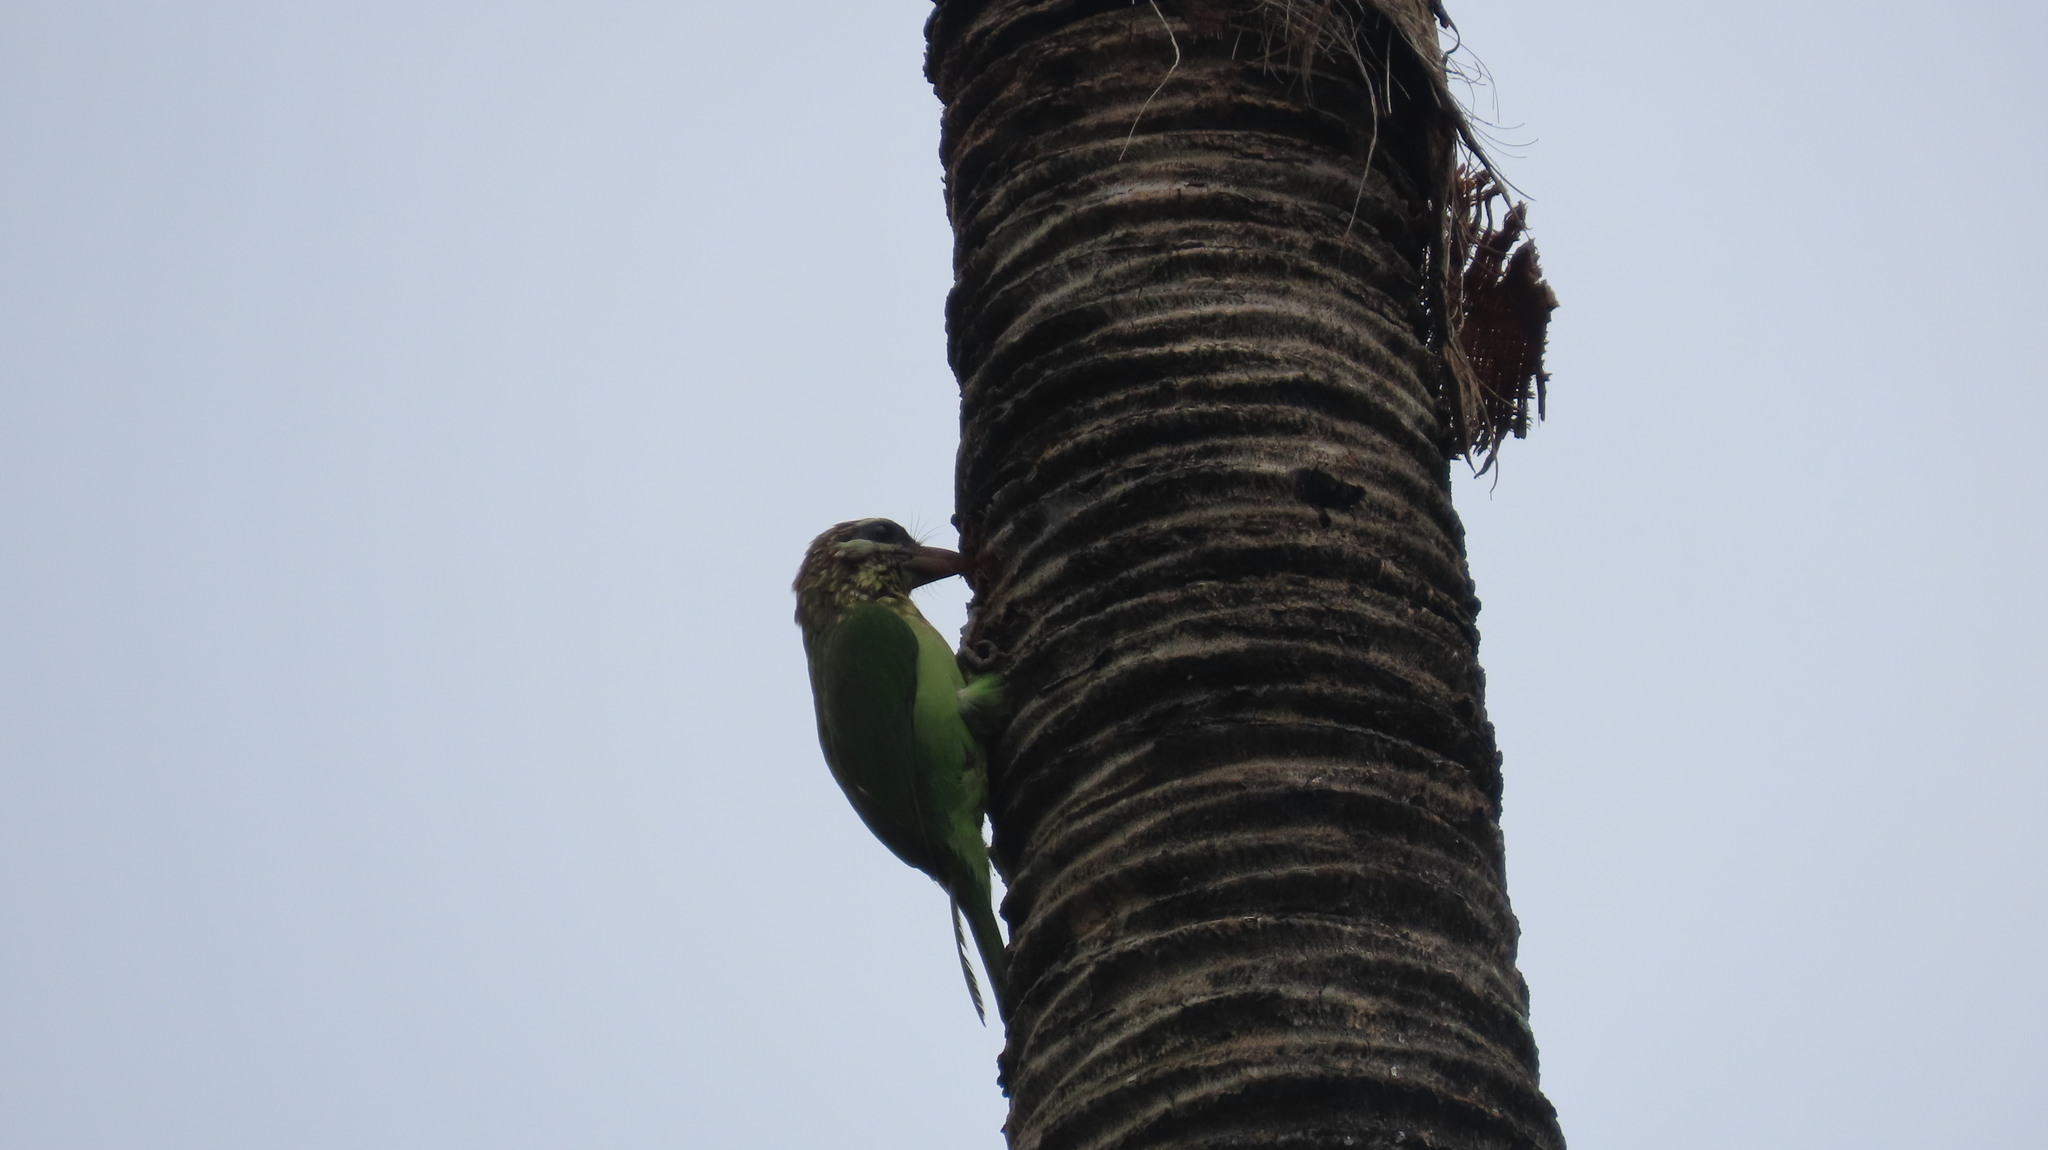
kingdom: Animalia
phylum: Chordata
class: Aves
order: Piciformes
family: Megalaimidae
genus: Psilopogon
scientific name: Psilopogon viridis
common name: White-cheeked barbet
